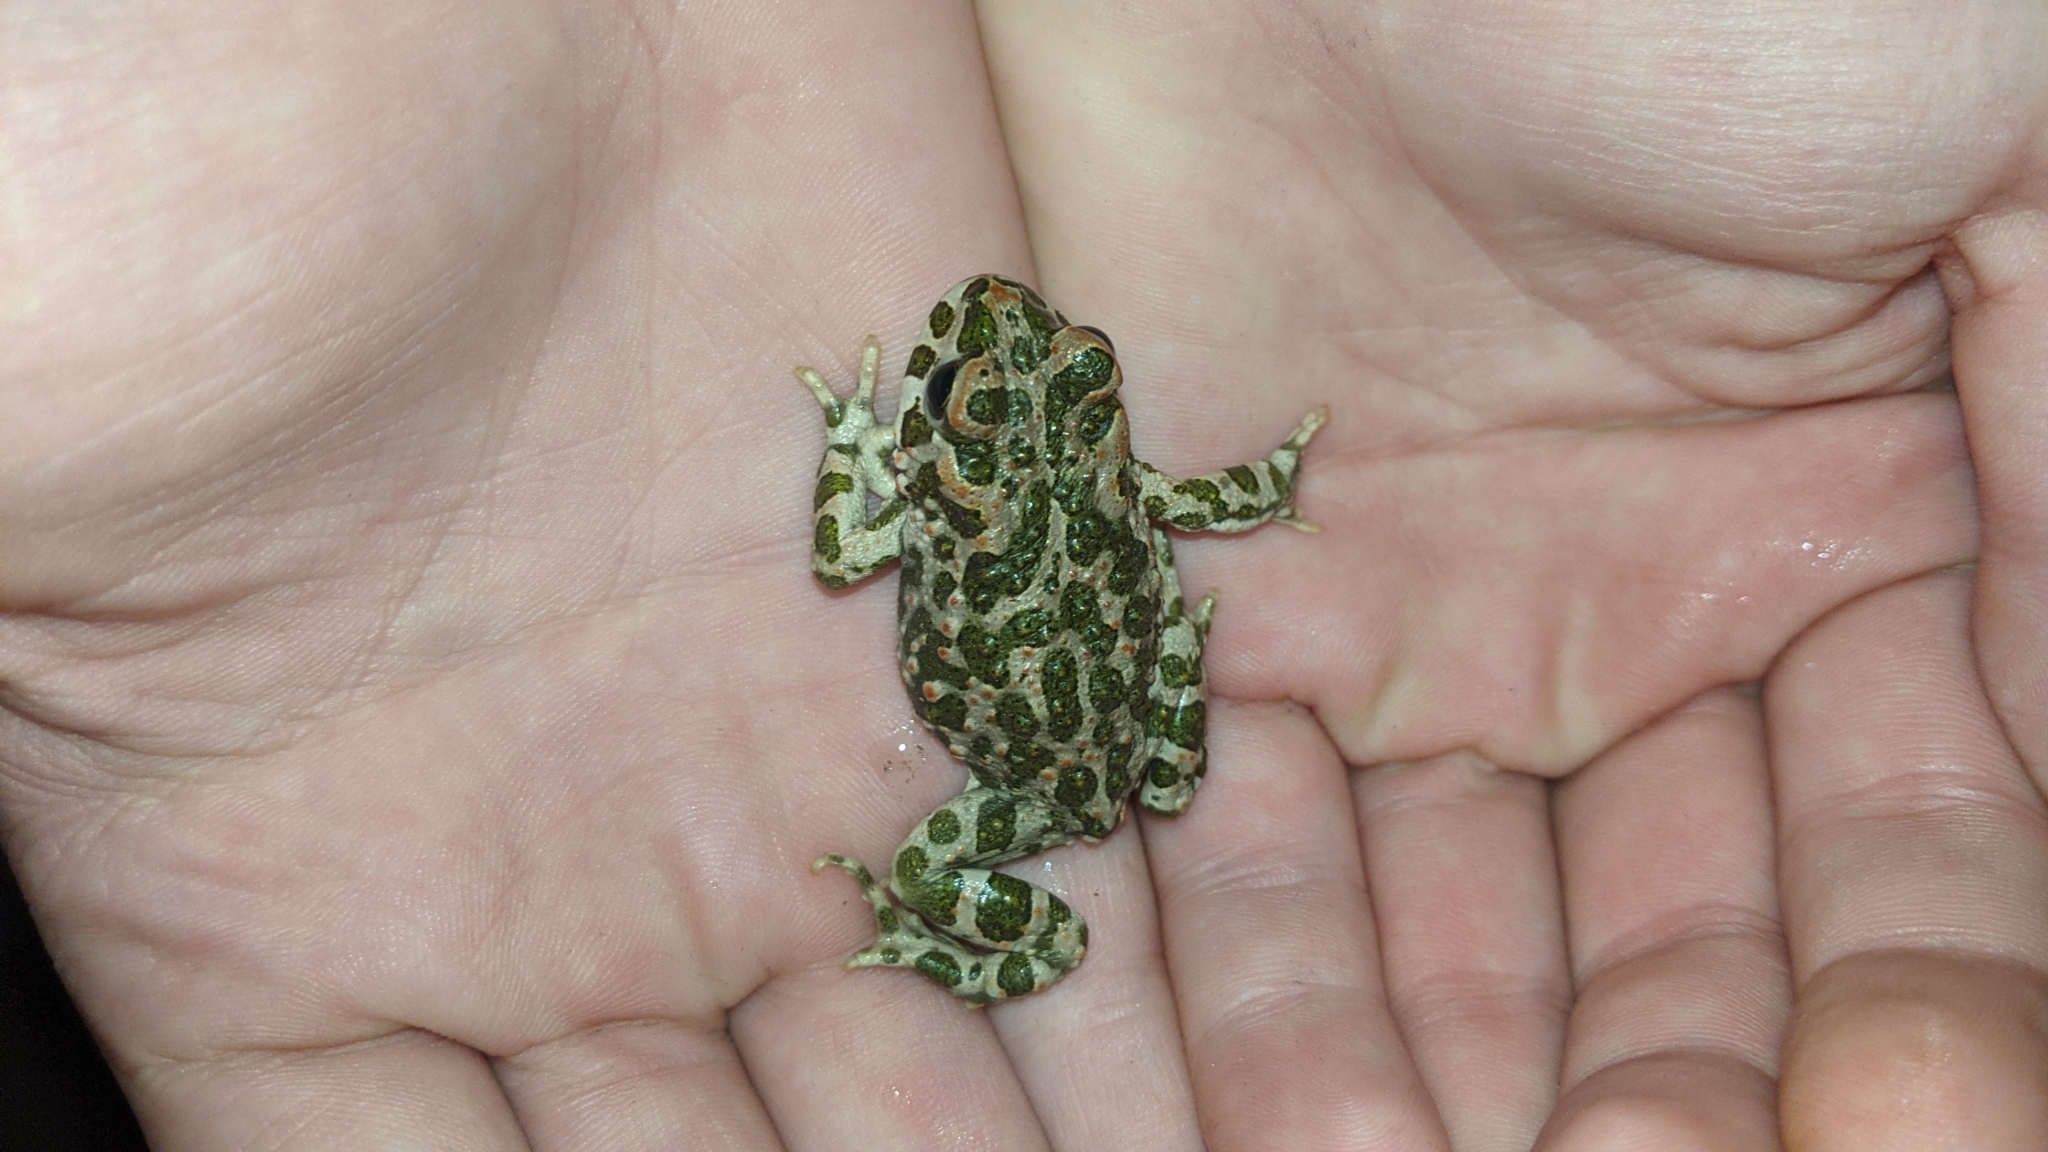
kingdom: Animalia
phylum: Chordata
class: Amphibia
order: Anura
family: Bufonidae
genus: Bufotes
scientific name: Bufotes viridis
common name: European green toad
